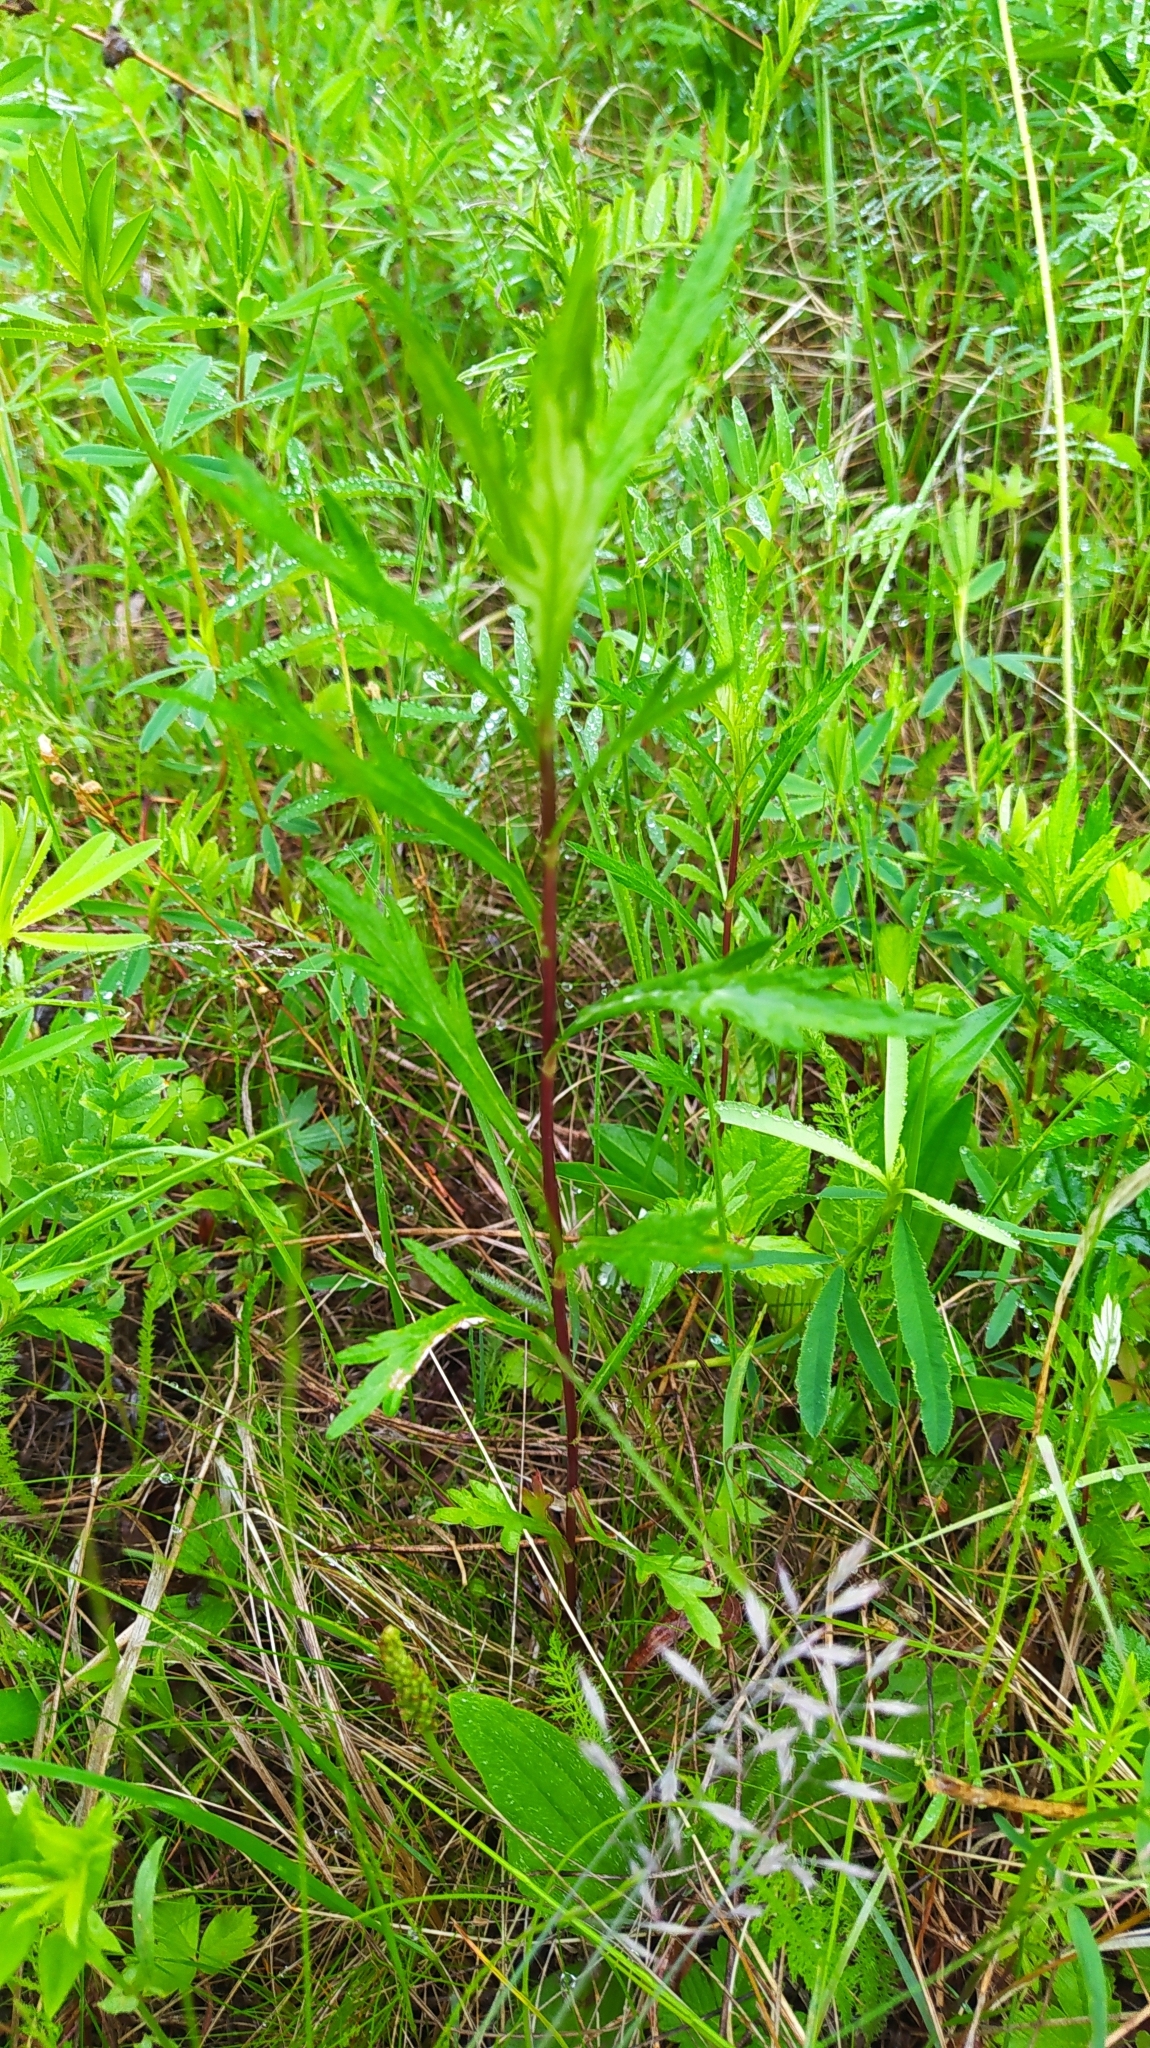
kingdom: Plantae
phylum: Tracheophyta
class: Magnoliopsida
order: Asterales
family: Asteraceae
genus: Artemisia
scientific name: Artemisia integrifolia
